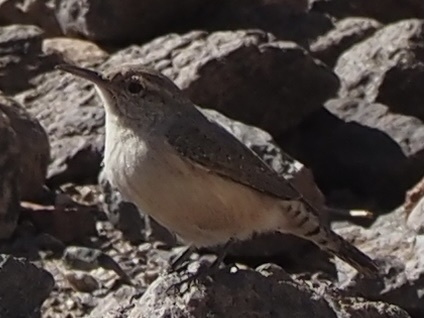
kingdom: Animalia
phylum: Chordata
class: Aves
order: Passeriformes
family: Troglodytidae
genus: Salpinctes
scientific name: Salpinctes obsoletus
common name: Rock wren
